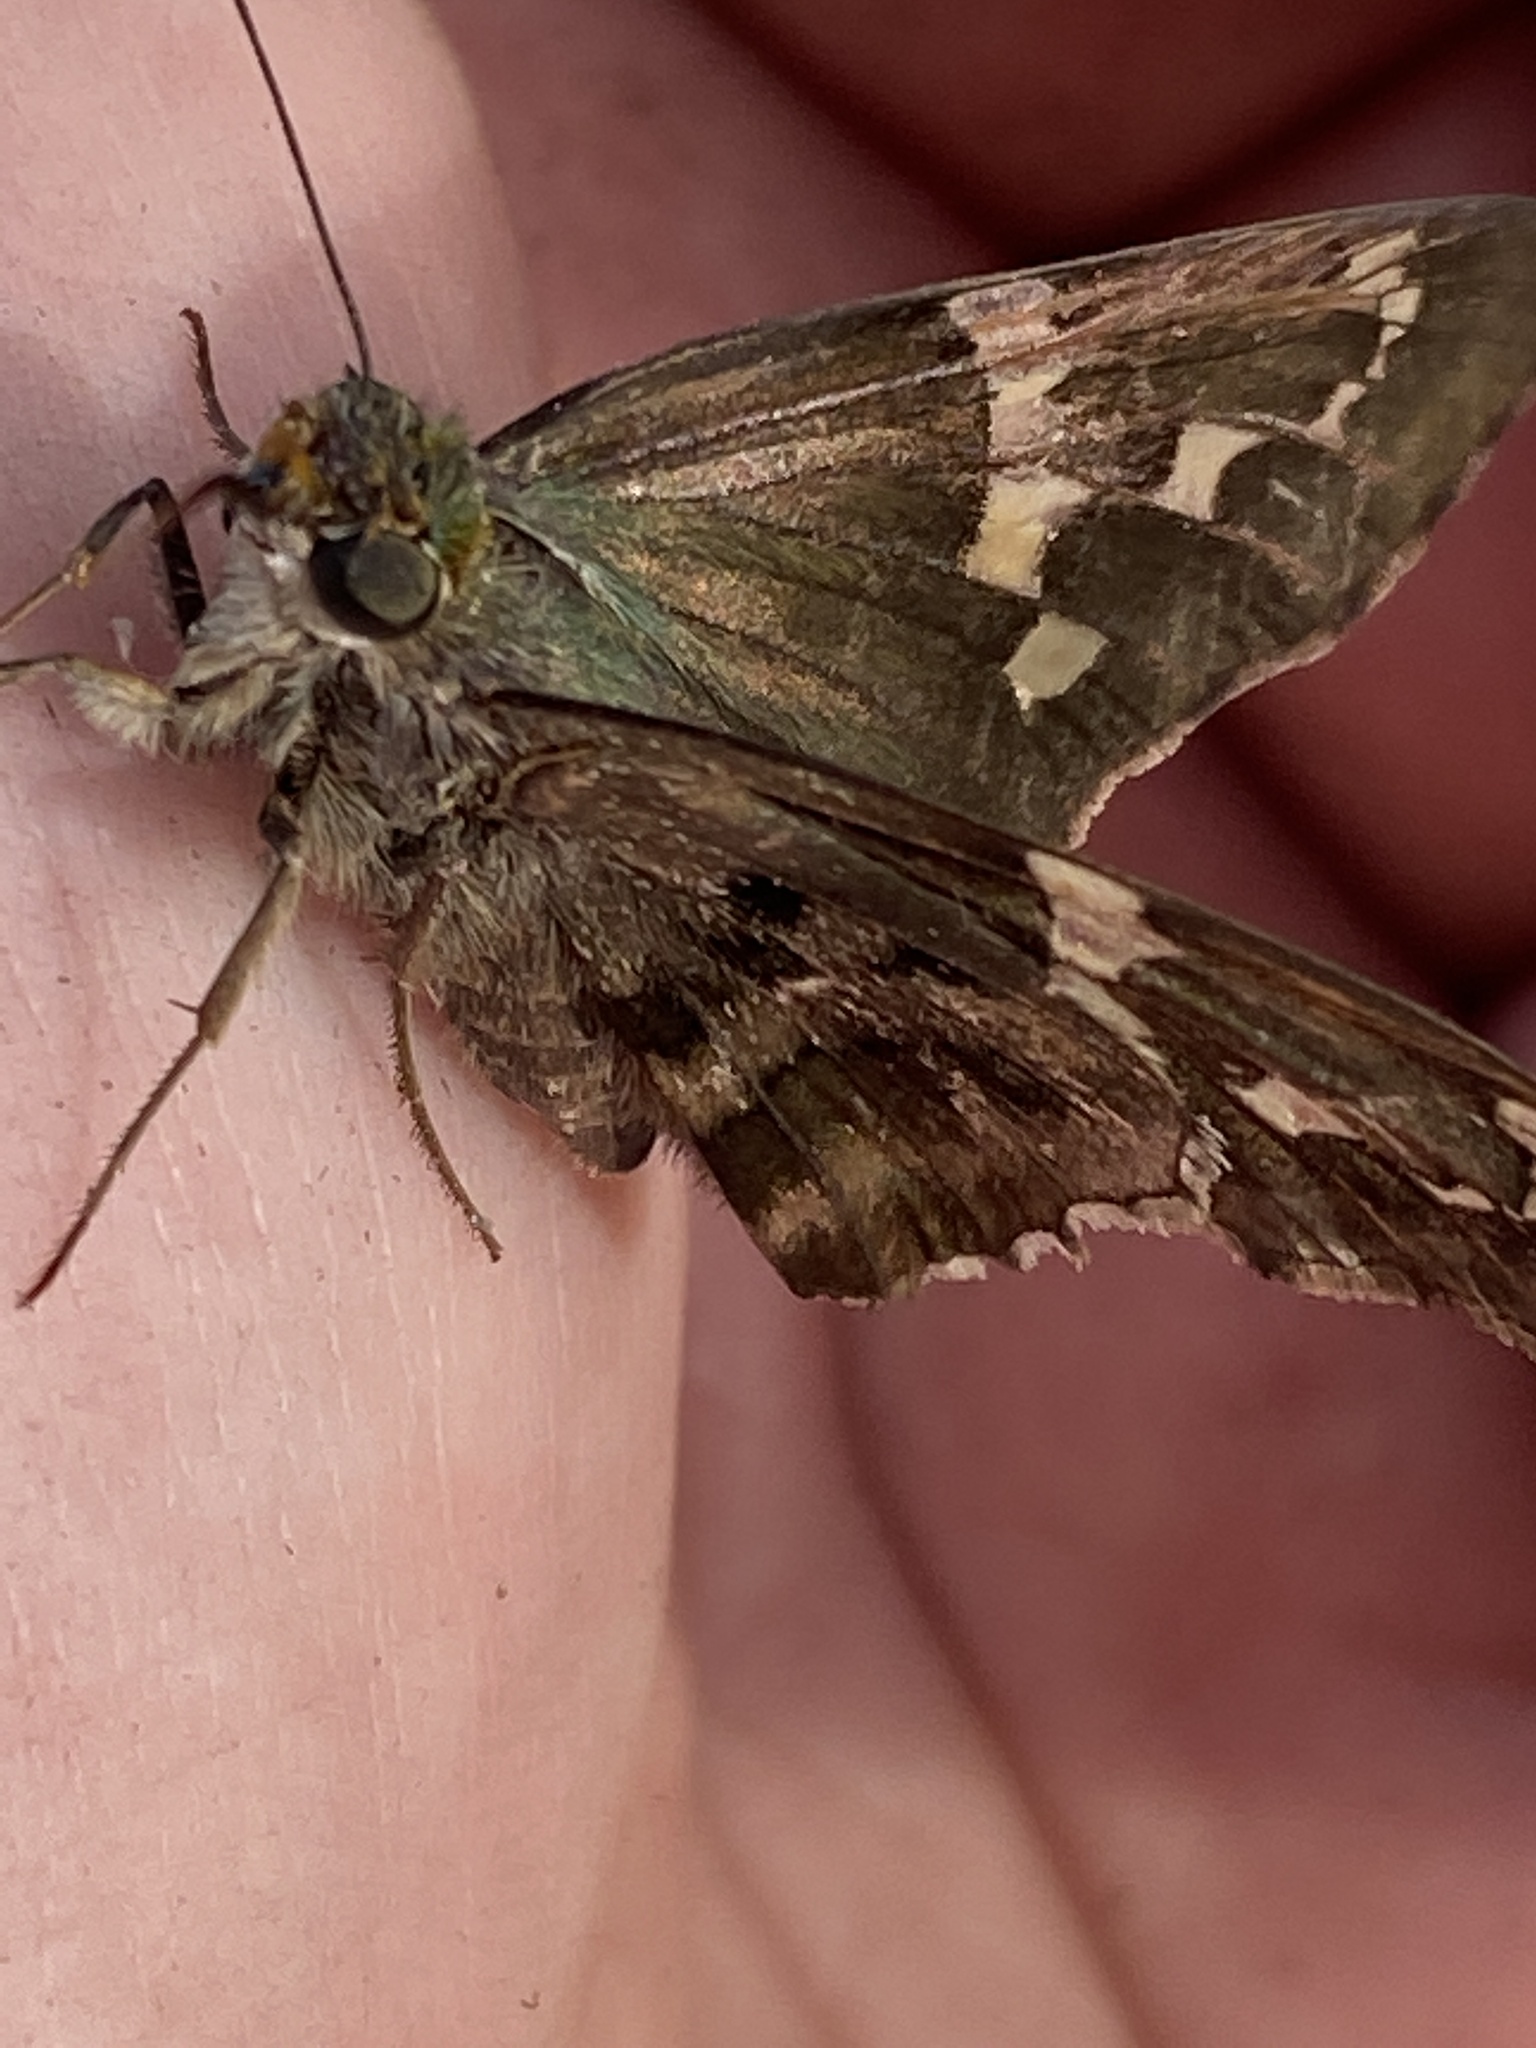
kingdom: Animalia
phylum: Arthropoda
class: Insecta
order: Lepidoptera
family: Hesperiidae
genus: Urbanus
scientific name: Urbanus proteus
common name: Long-tailed skipper
